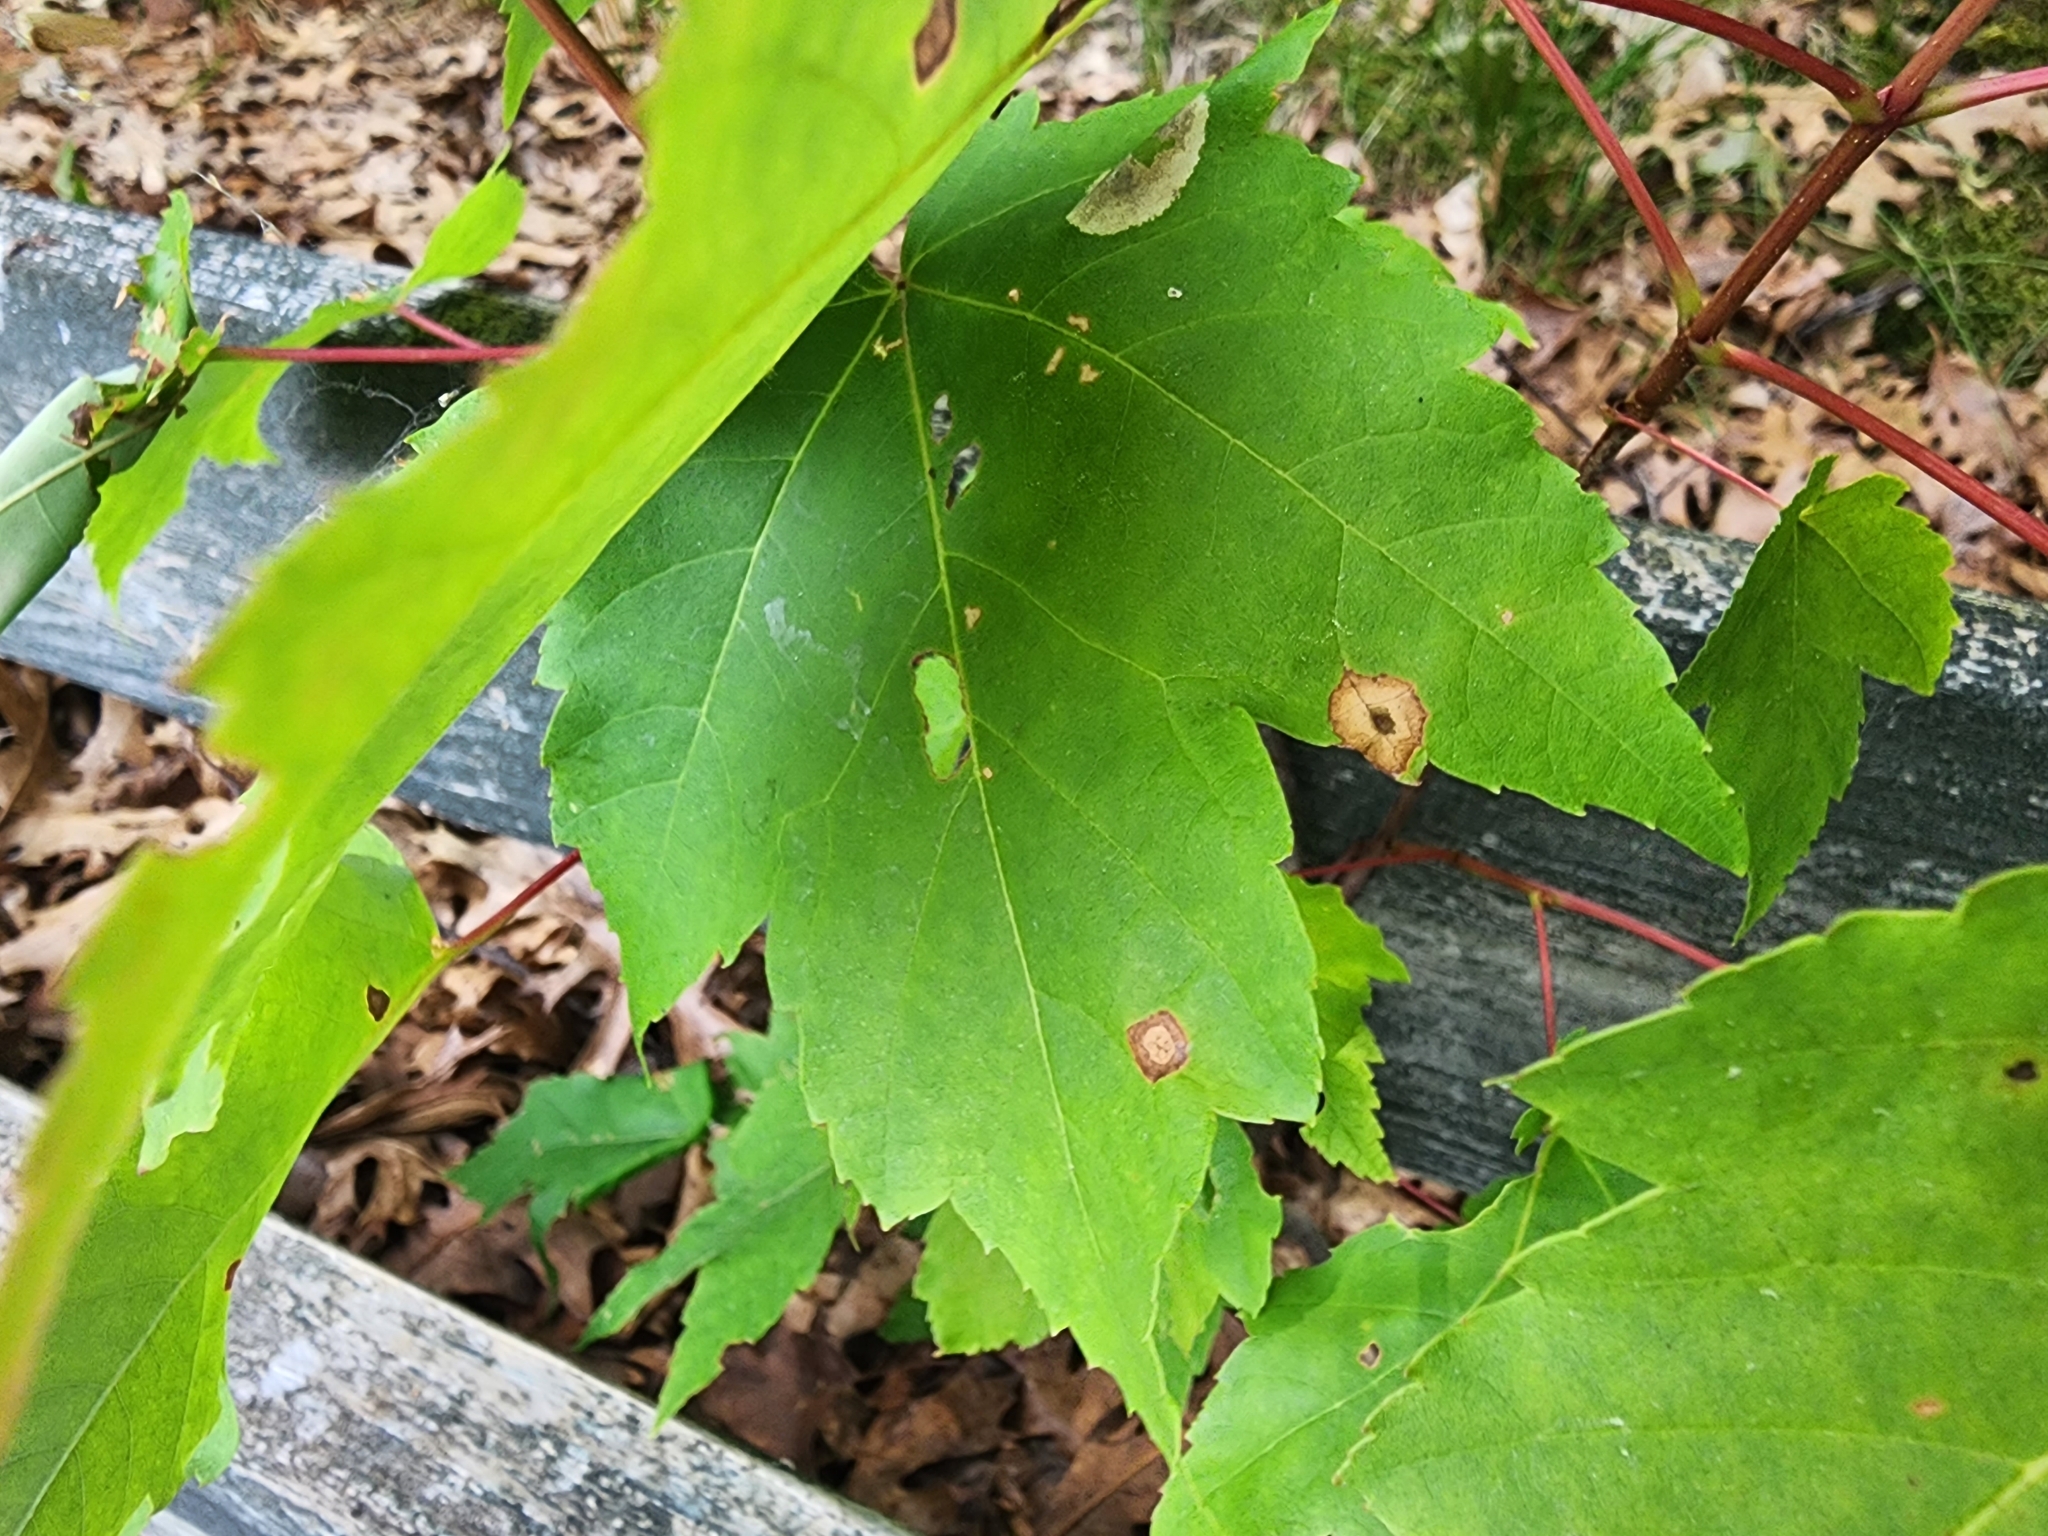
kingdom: Animalia
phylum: Arthropoda
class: Insecta
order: Diptera
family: Cecidomyiidae
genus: Acericecis
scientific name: Acericecis ocellaris
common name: Ocellate gall midge
